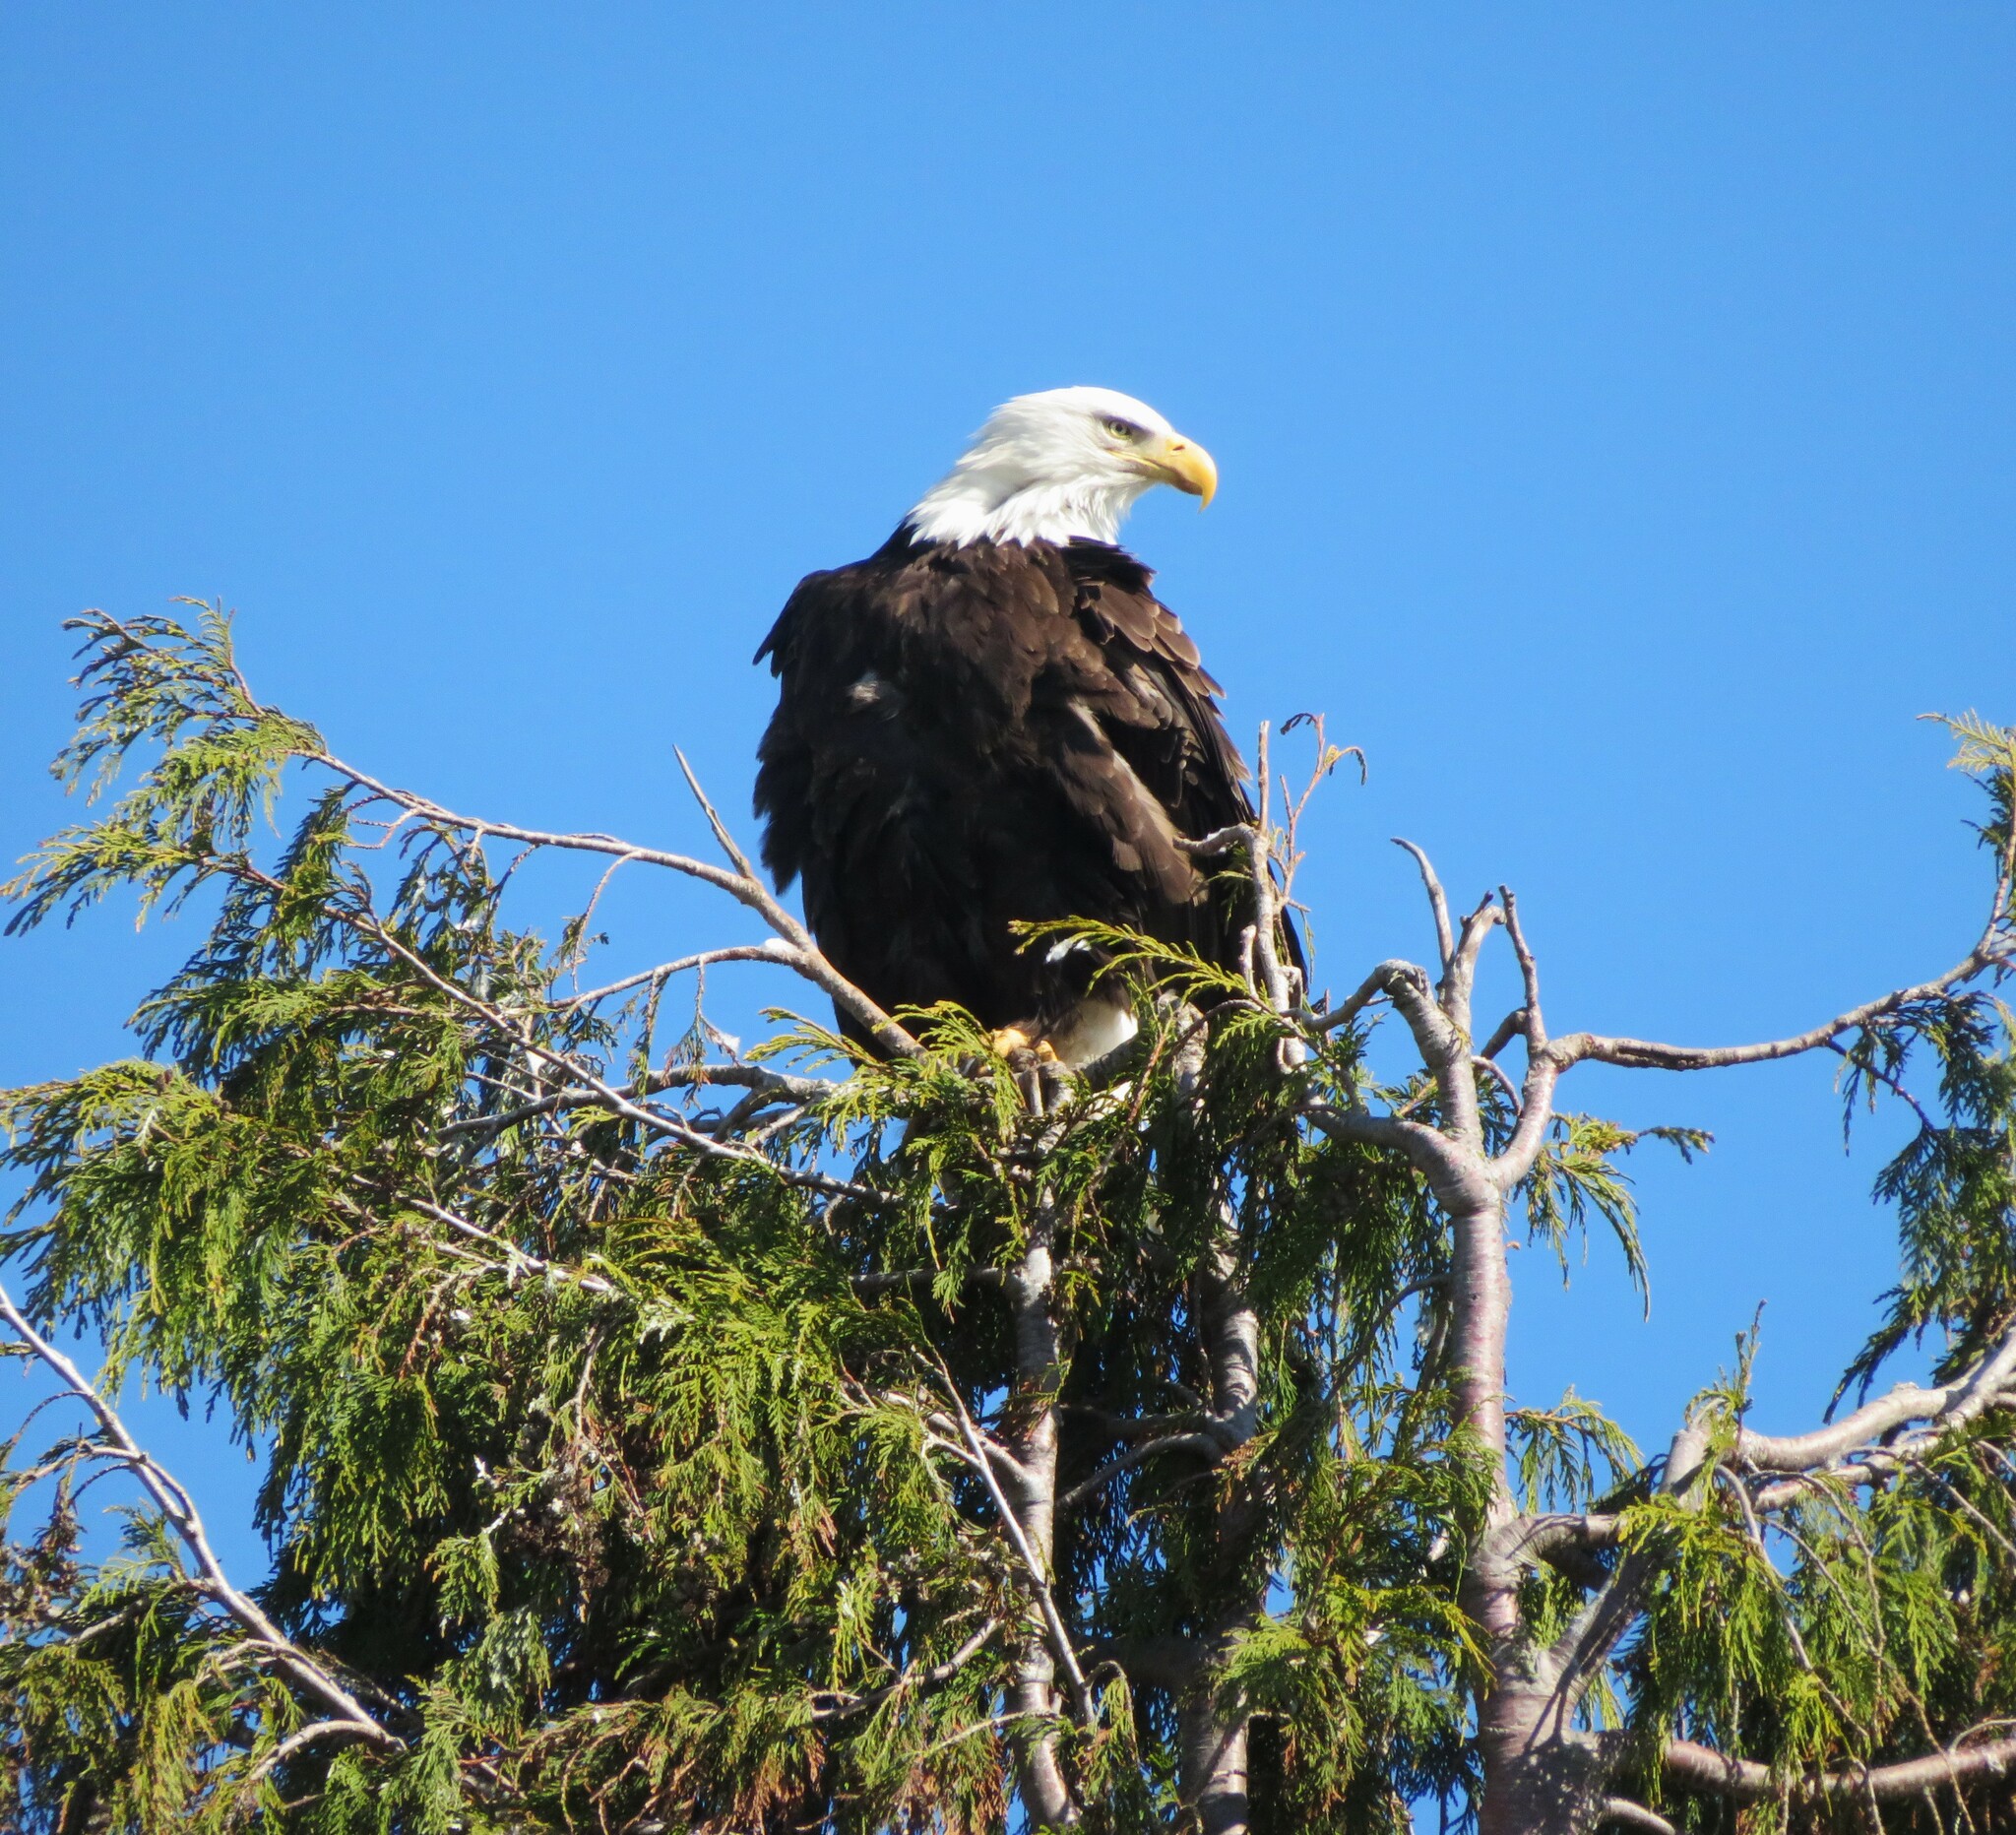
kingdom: Animalia
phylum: Chordata
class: Aves
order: Accipitriformes
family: Accipitridae
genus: Haliaeetus
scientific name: Haliaeetus leucocephalus
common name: Bald eagle
